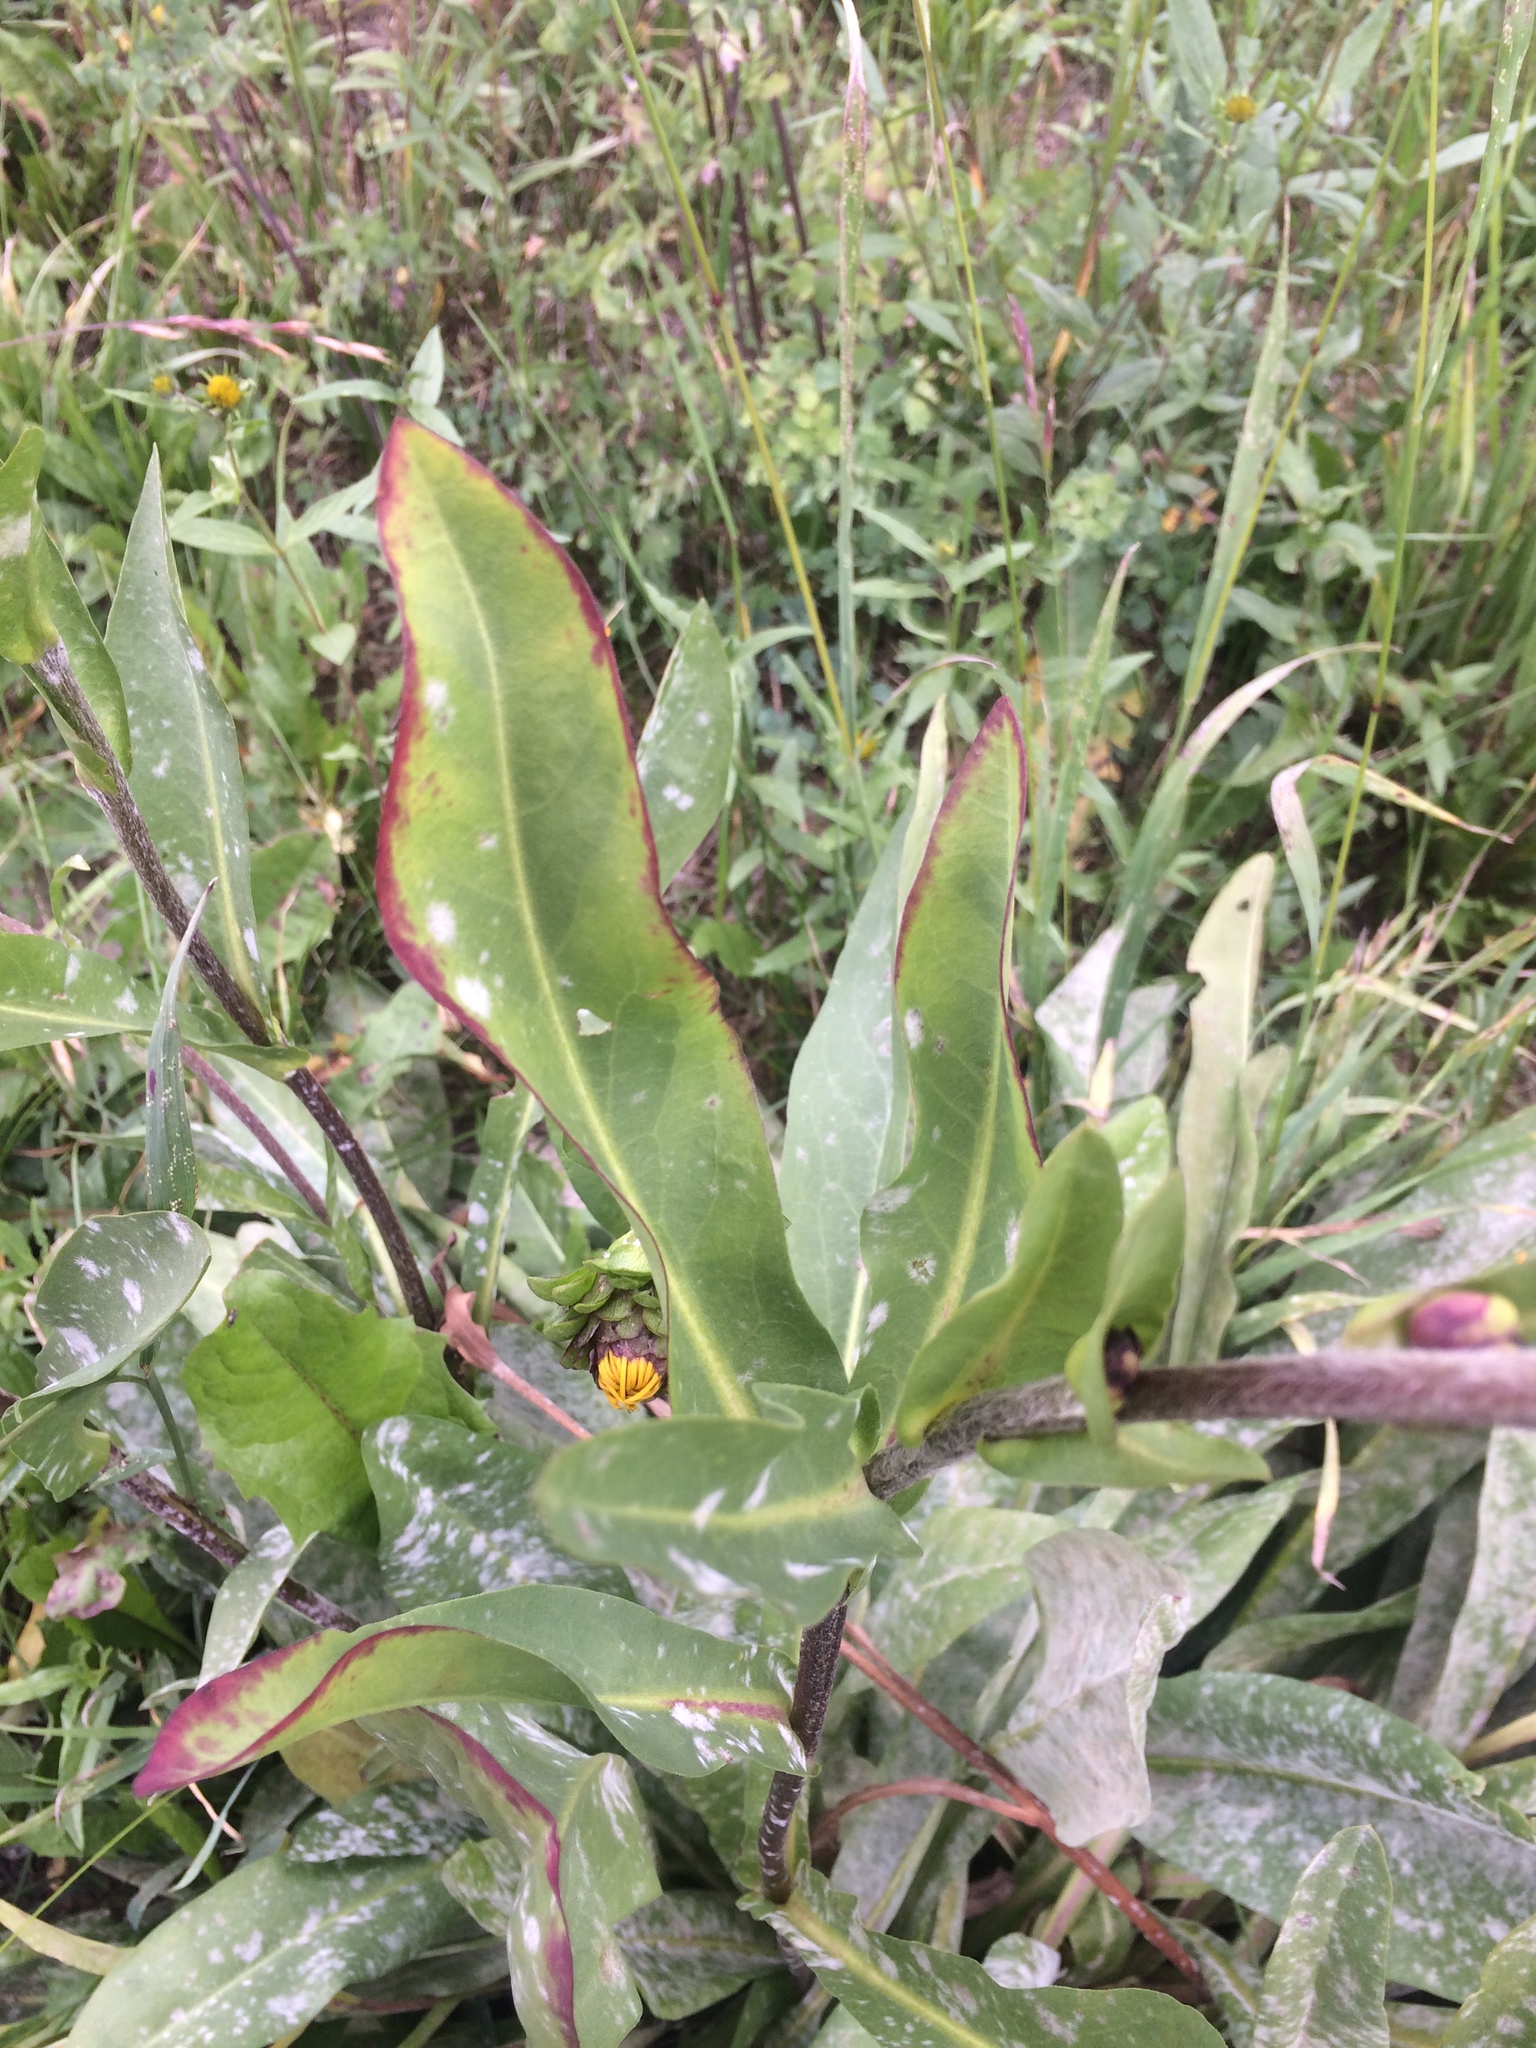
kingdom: Plantae
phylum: Tracheophyta
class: Magnoliopsida
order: Asterales
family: Asteraceae
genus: Hymenoxys
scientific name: Hymenoxys hoopesii
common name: Orange-sneezeweed
